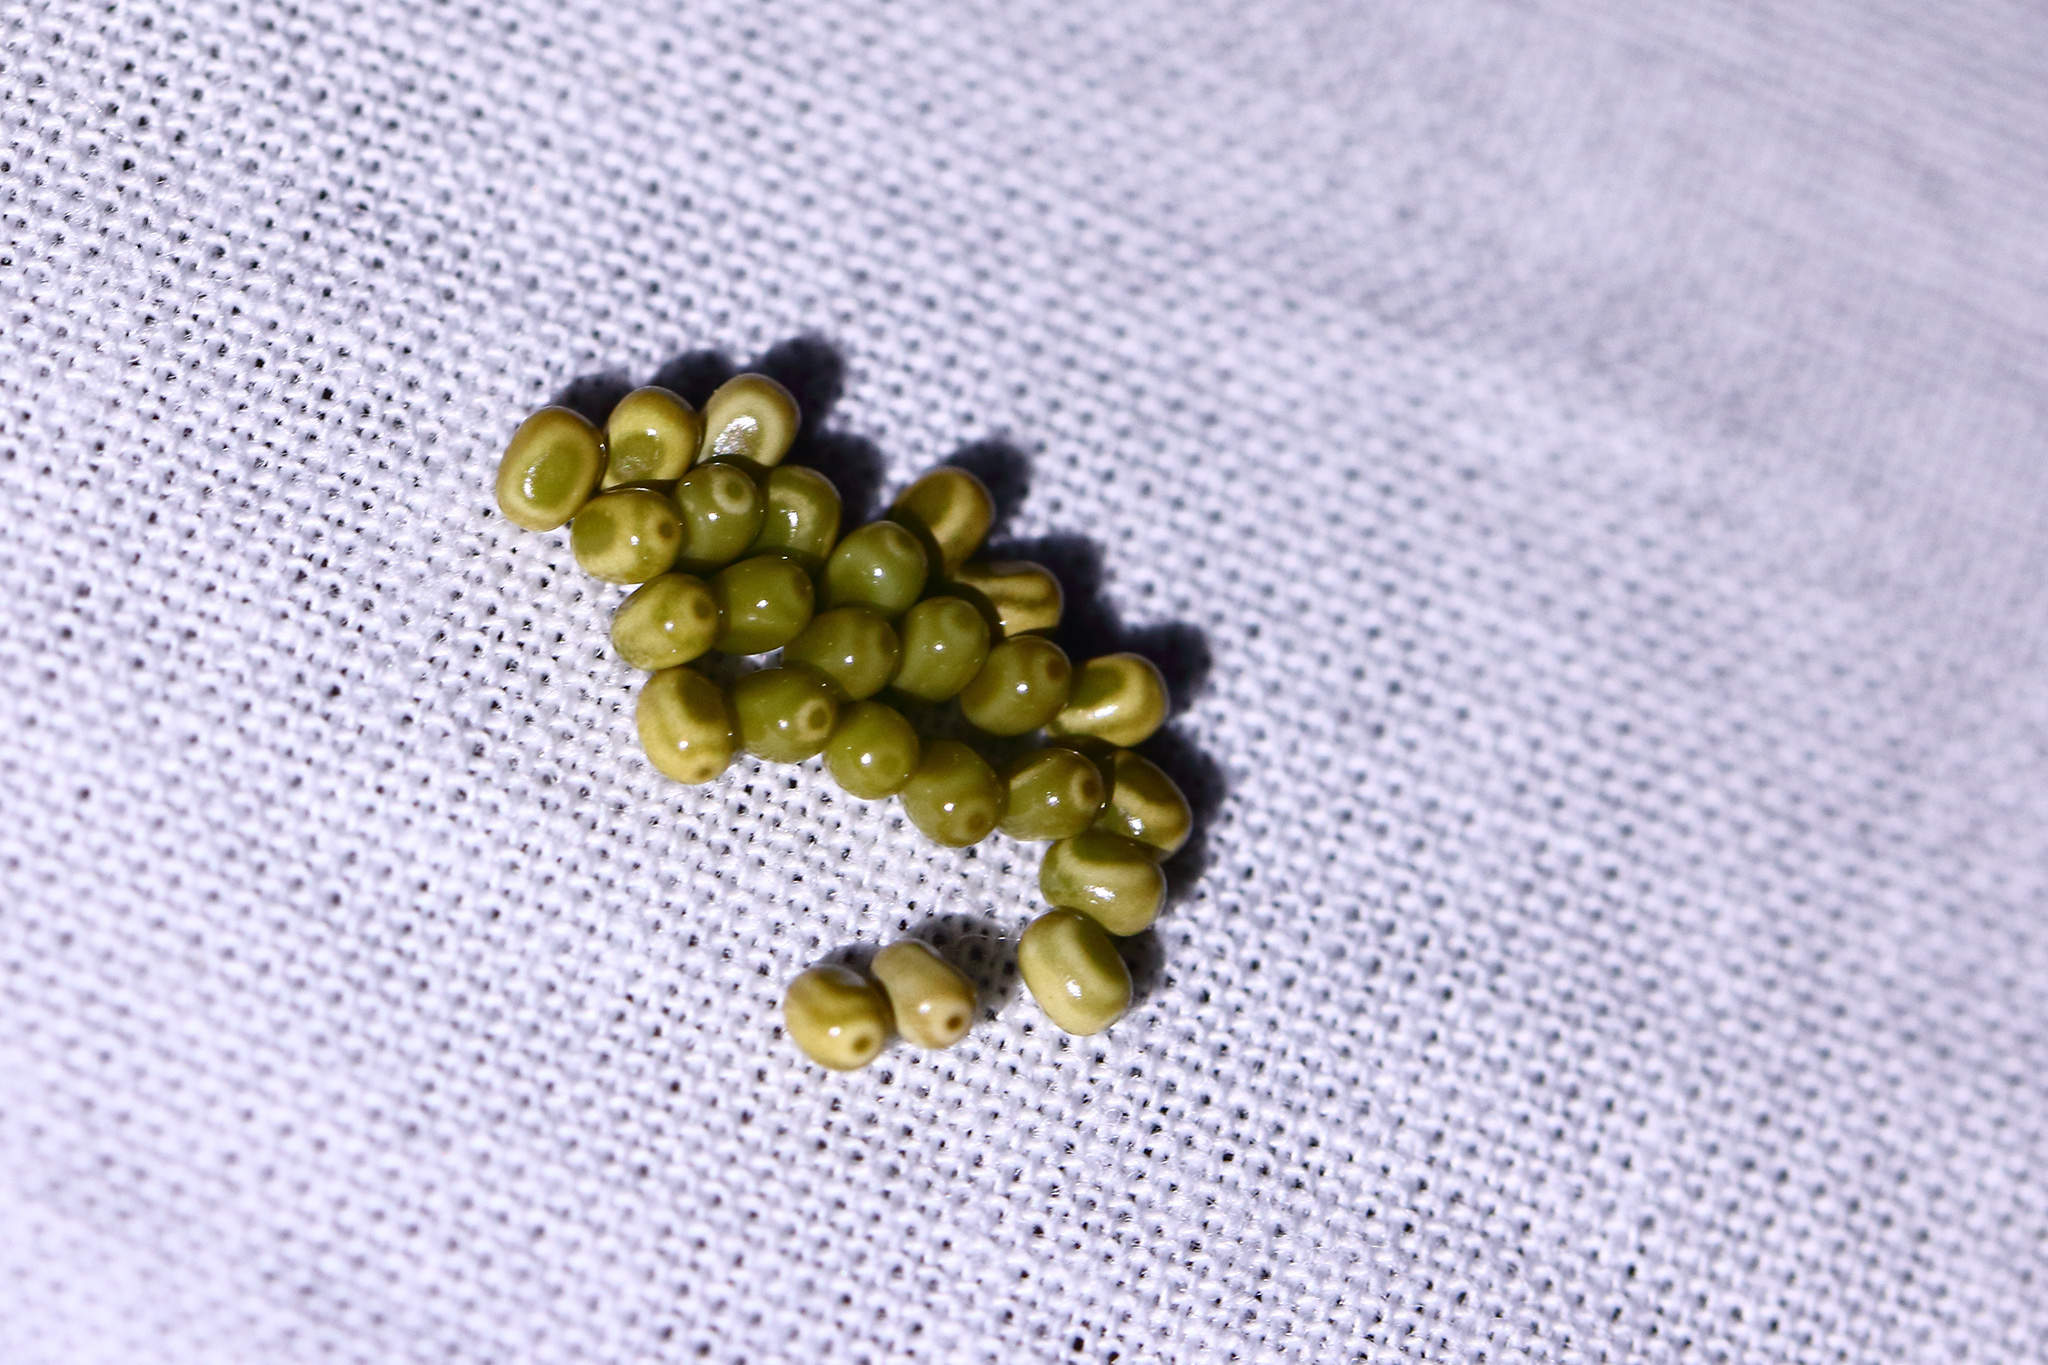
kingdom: Animalia
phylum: Arthropoda
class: Insecta
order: Lepidoptera
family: Lasiocampidae
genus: Macrothylacia
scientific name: Macrothylacia rubi
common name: Fox moth
